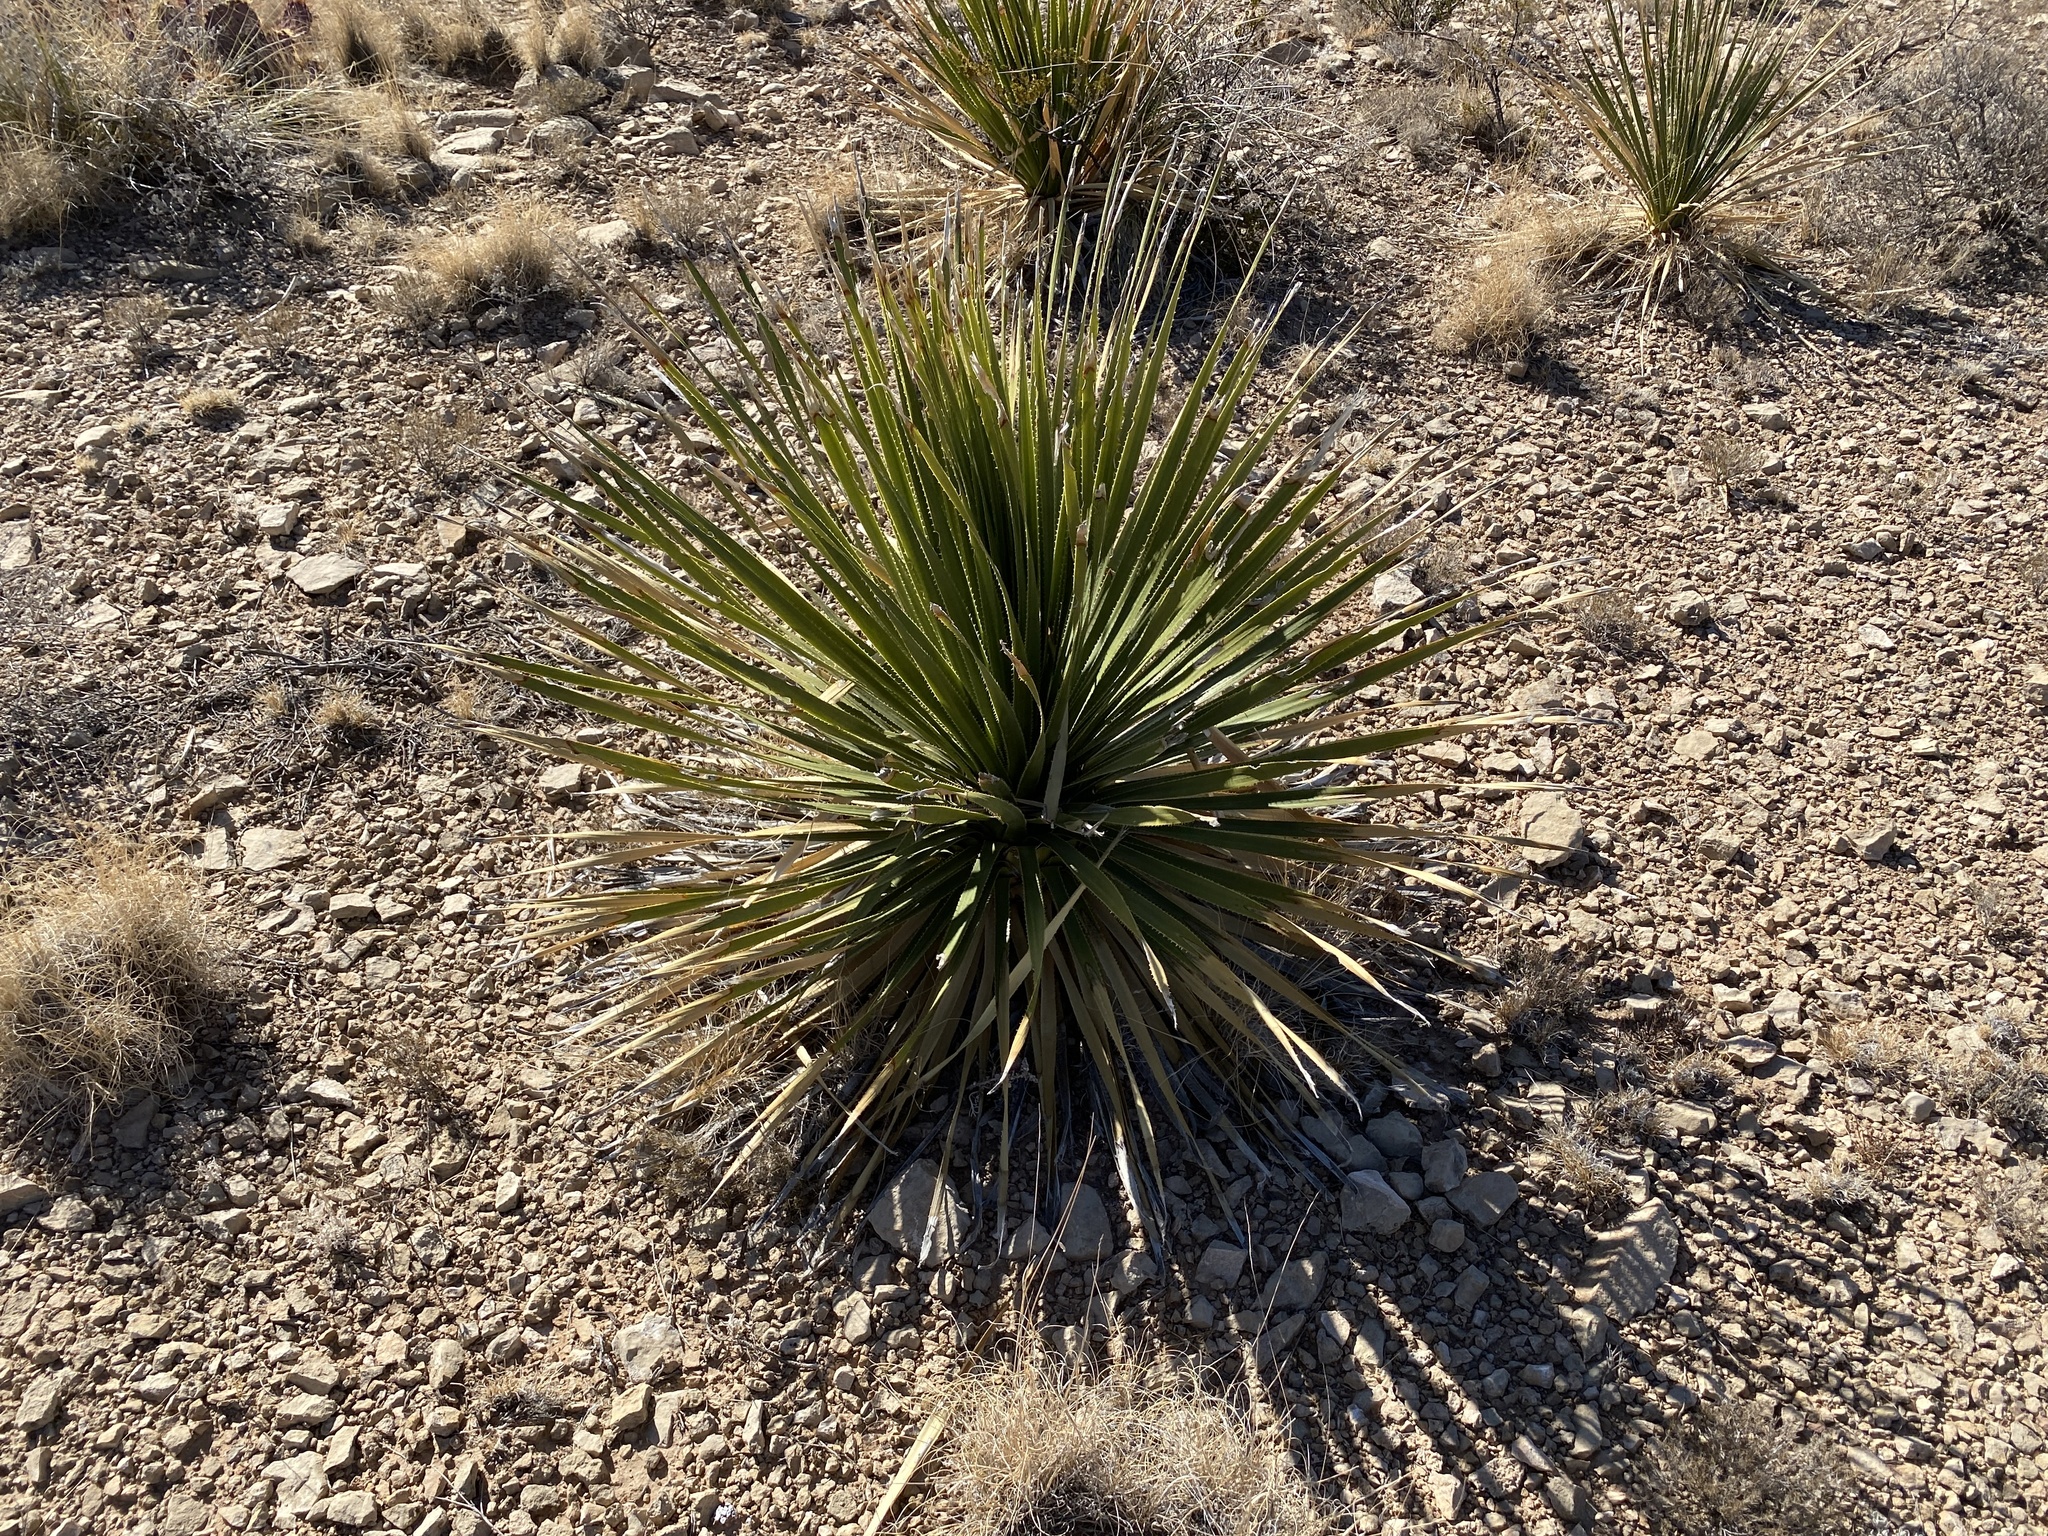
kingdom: Plantae
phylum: Tracheophyta
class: Liliopsida
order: Asparagales
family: Asparagaceae
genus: Dasylirion
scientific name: Dasylirion wheeleri
